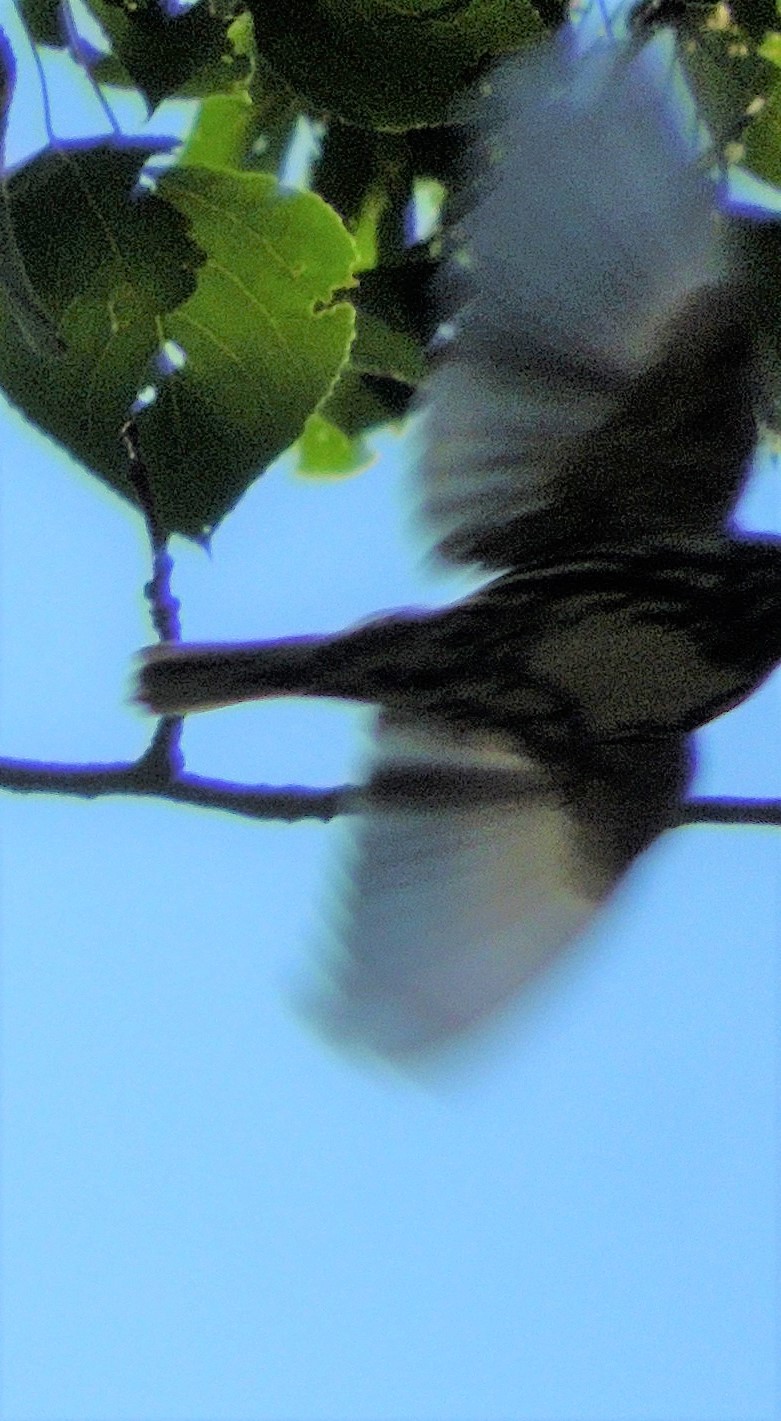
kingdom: Animalia
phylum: Chordata
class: Aves
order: Passeriformes
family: Parulidae
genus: Mniotilta
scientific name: Mniotilta varia
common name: Black-and-white warbler
